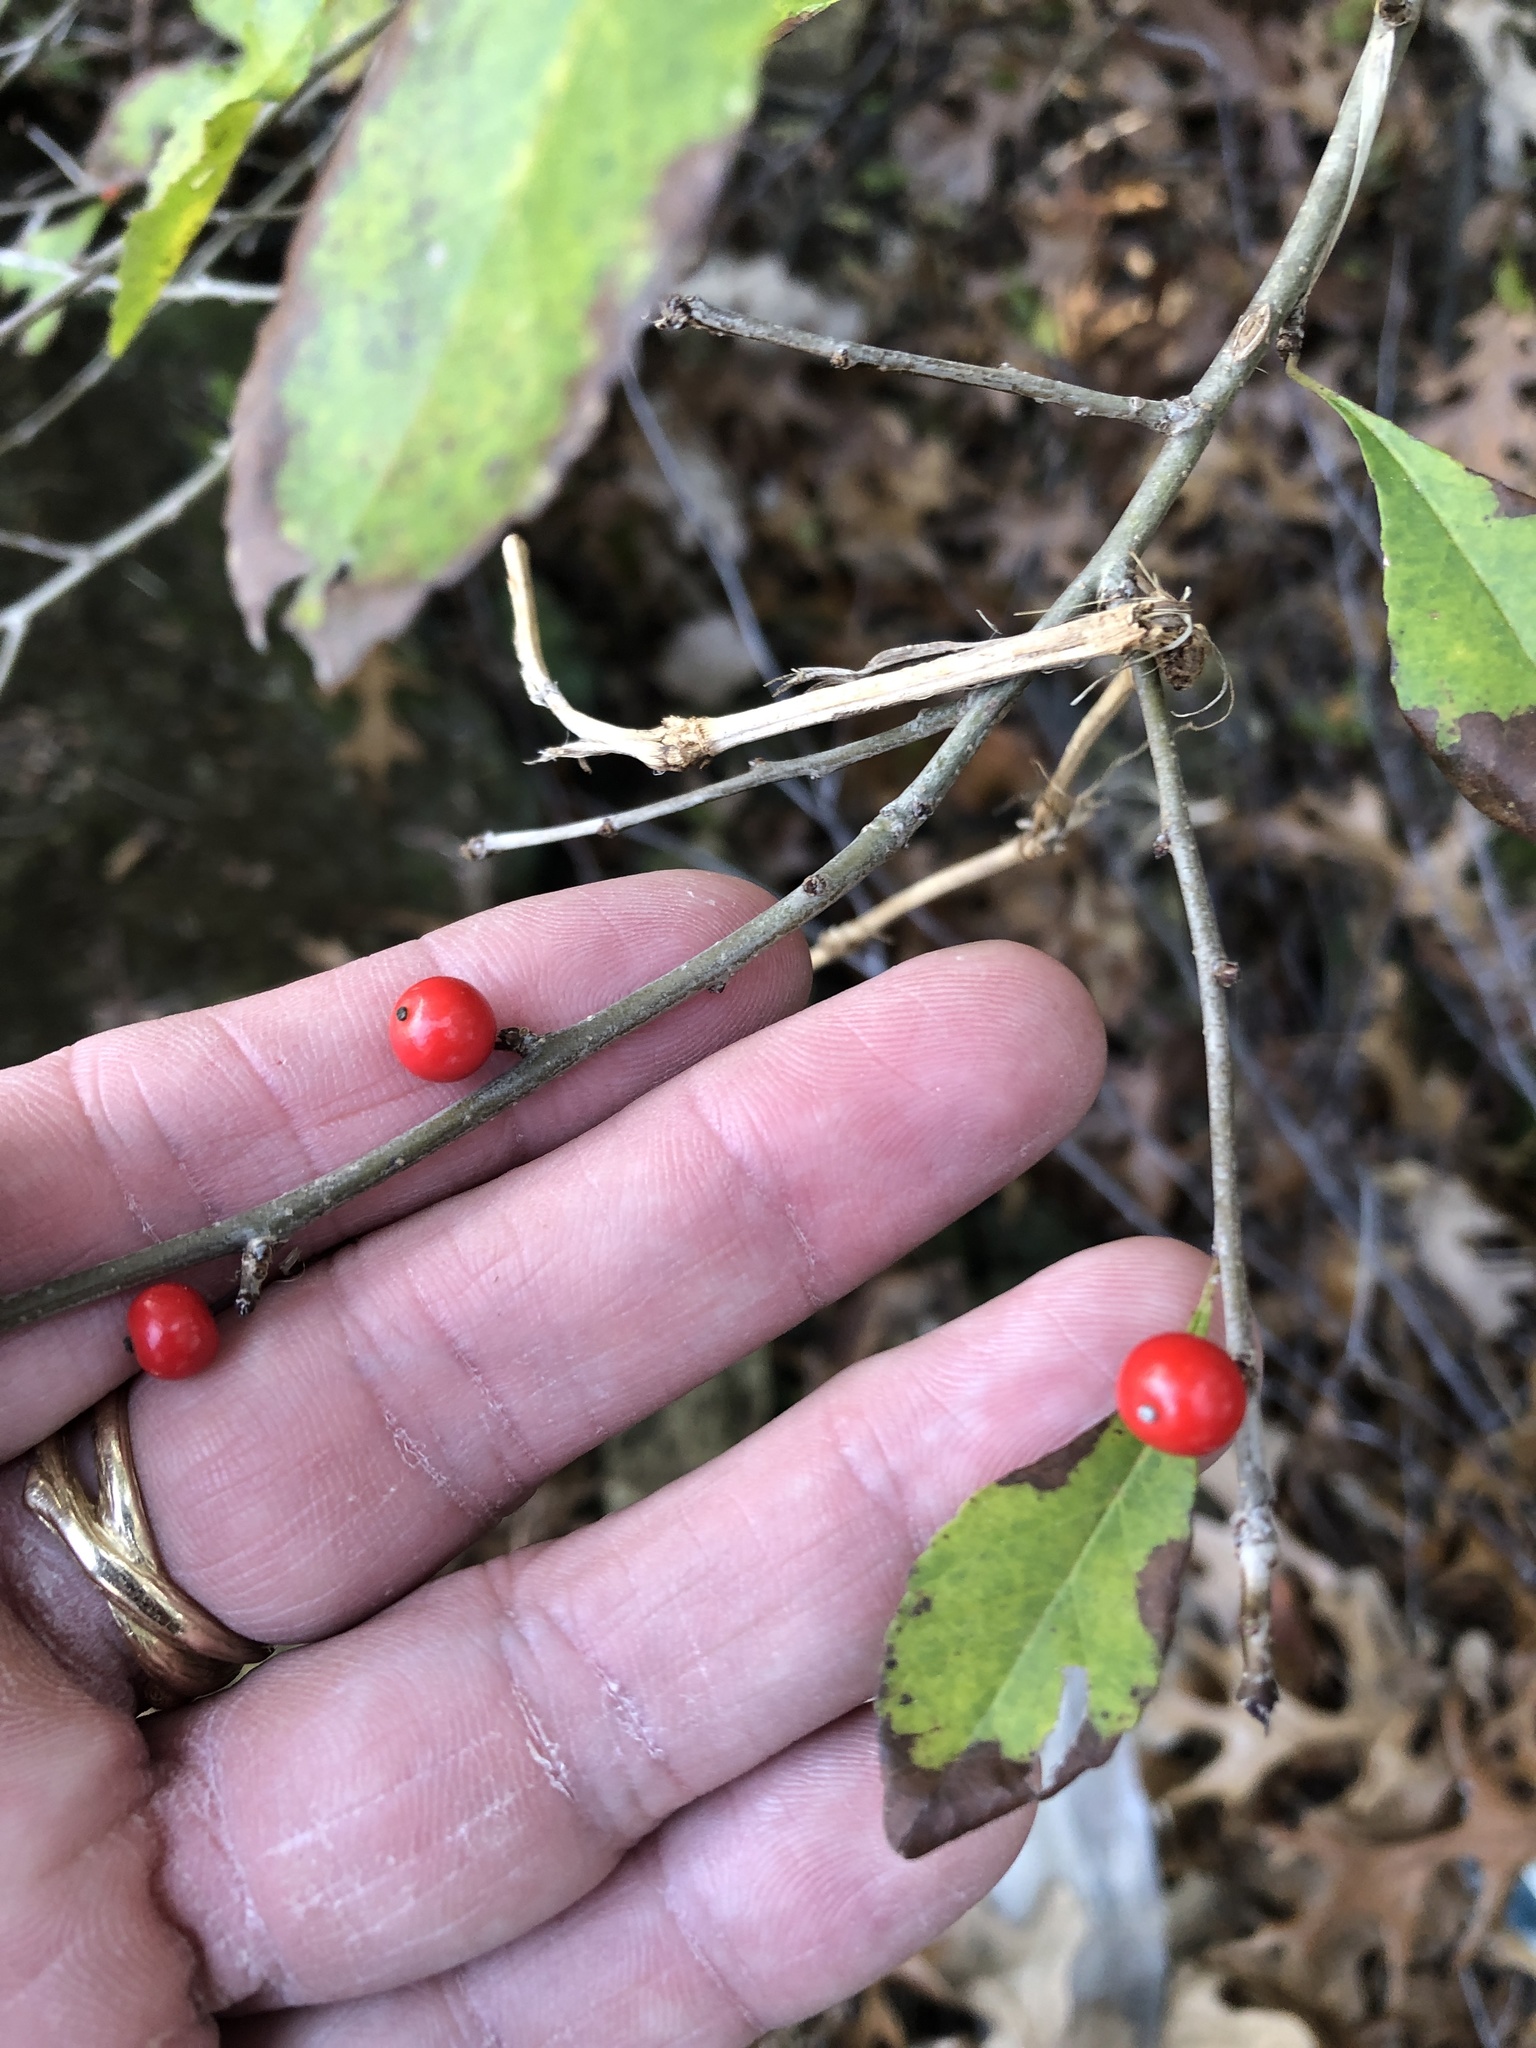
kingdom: Plantae
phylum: Tracheophyta
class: Magnoliopsida
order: Aquifoliales
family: Aquifoliaceae
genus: Ilex
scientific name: Ilex decidua
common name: Possum-haw
